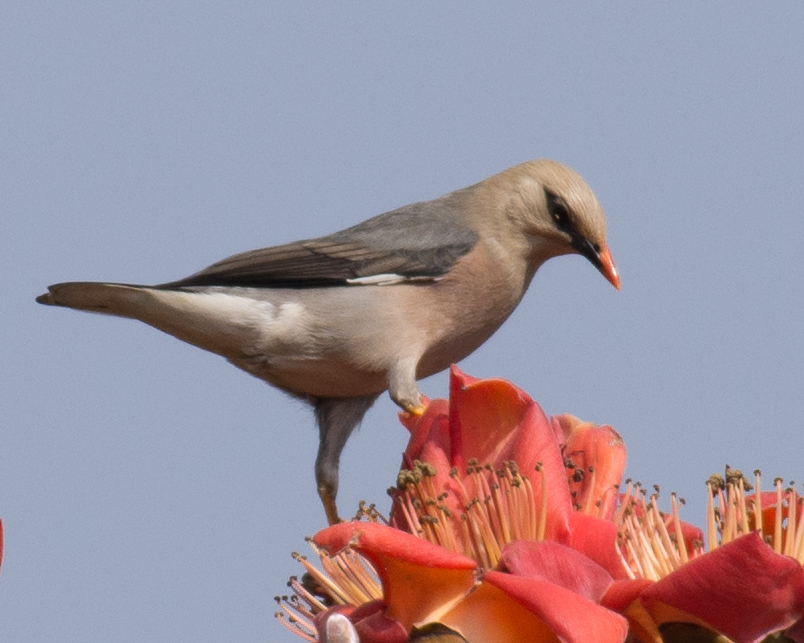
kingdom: Animalia
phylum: Chordata
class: Aves
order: Passeriformes
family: Sturnidae
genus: Acridotheres
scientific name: Acridotheres burmannicus
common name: Vinous-breasted starling
